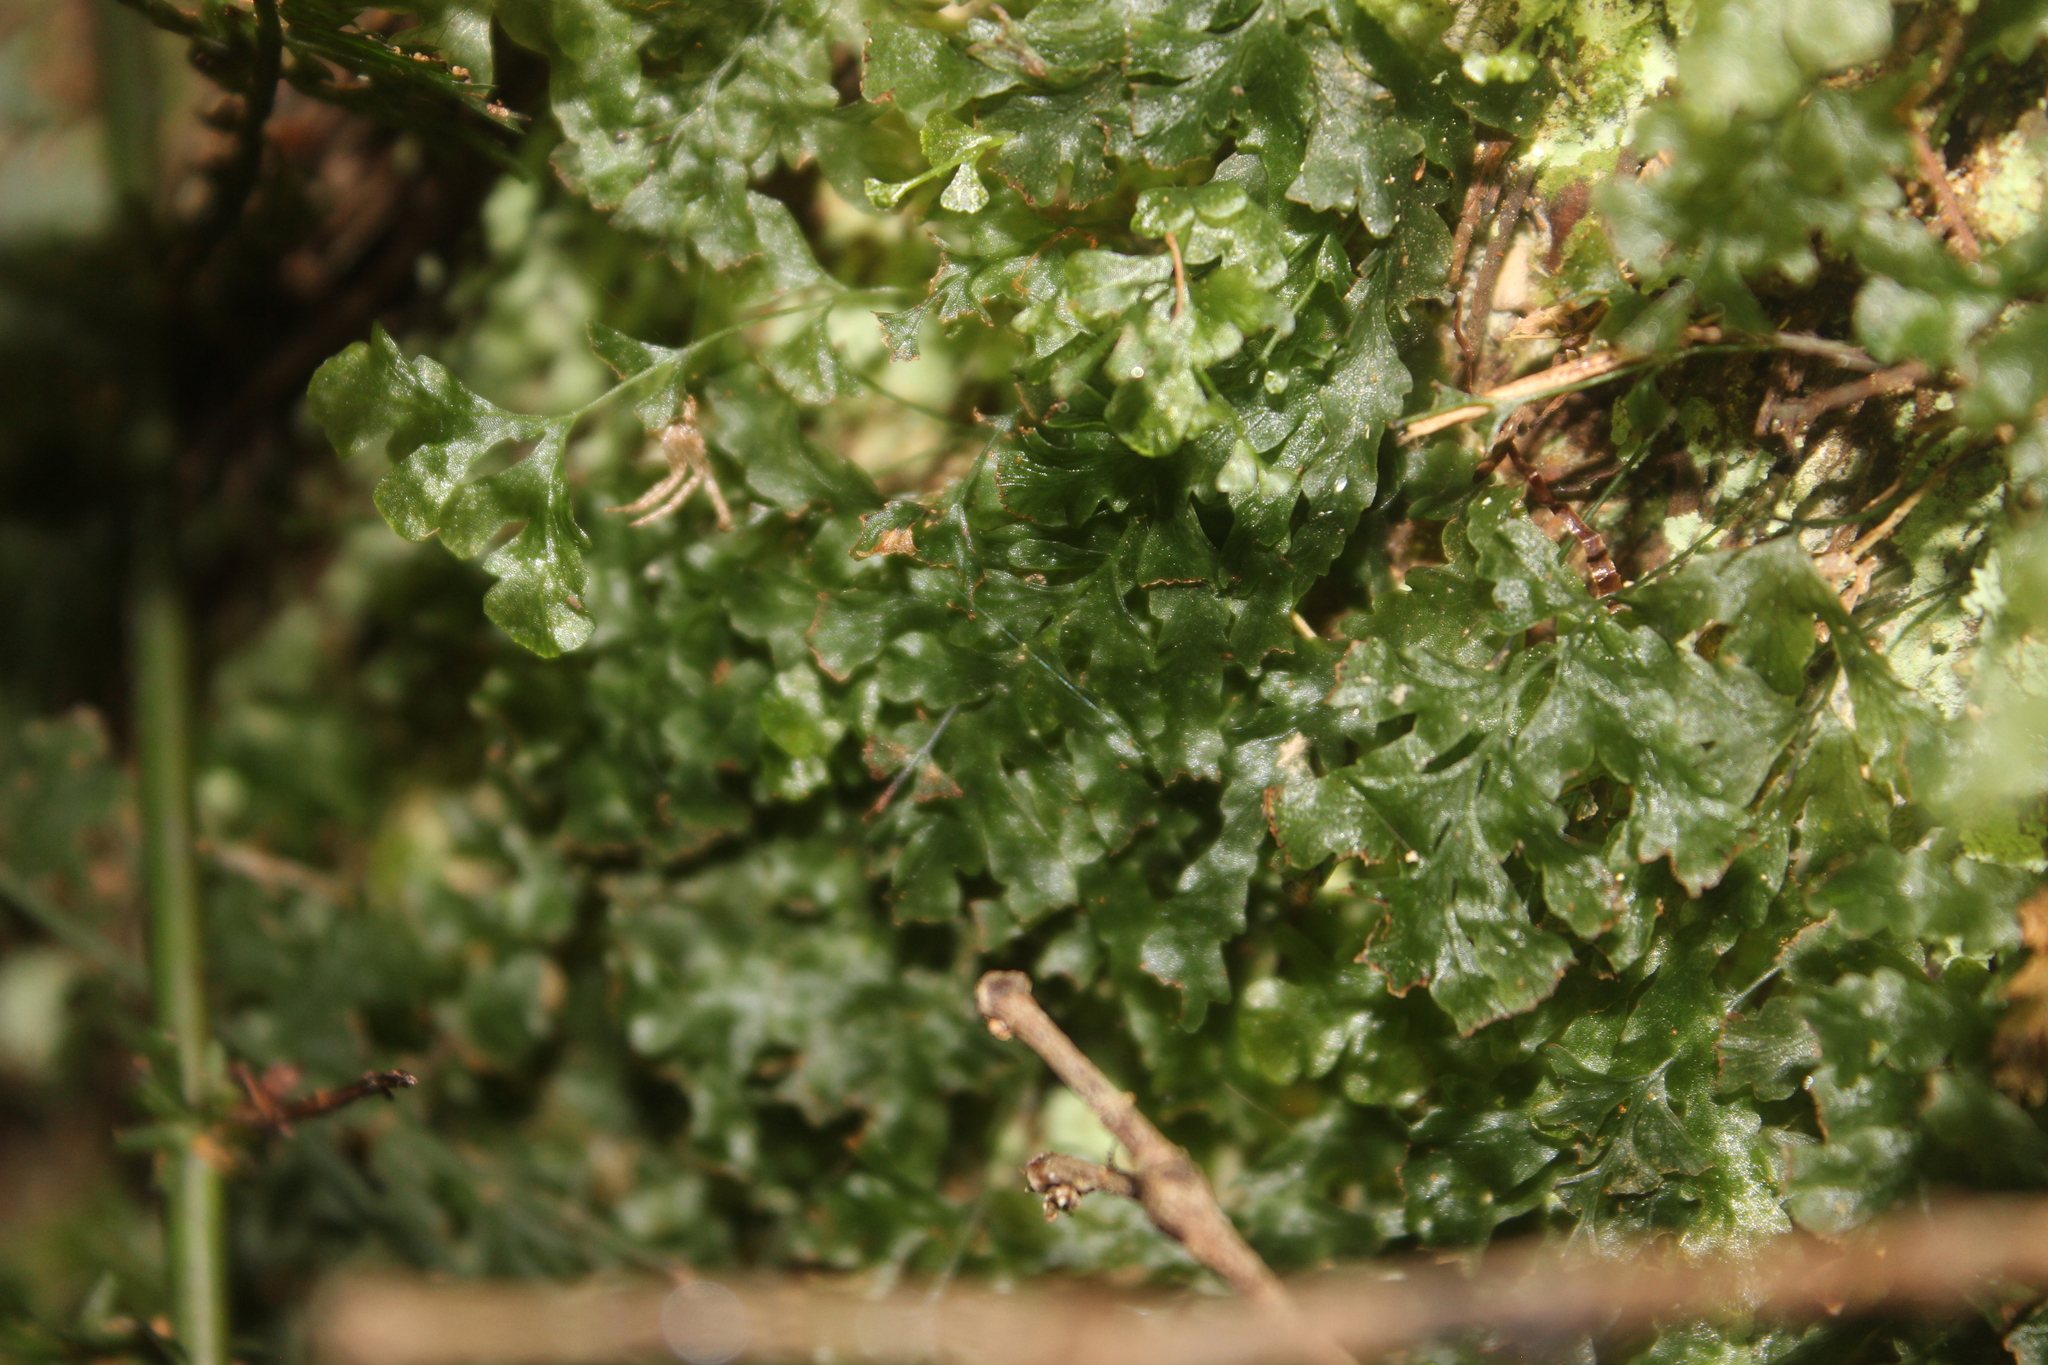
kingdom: Plantae
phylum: Tracheophyta
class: Polypodiopsida
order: Hymenophyllales
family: Hymenophyllaceae
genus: Polyphlebium
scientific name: Polyphlebium venosum
